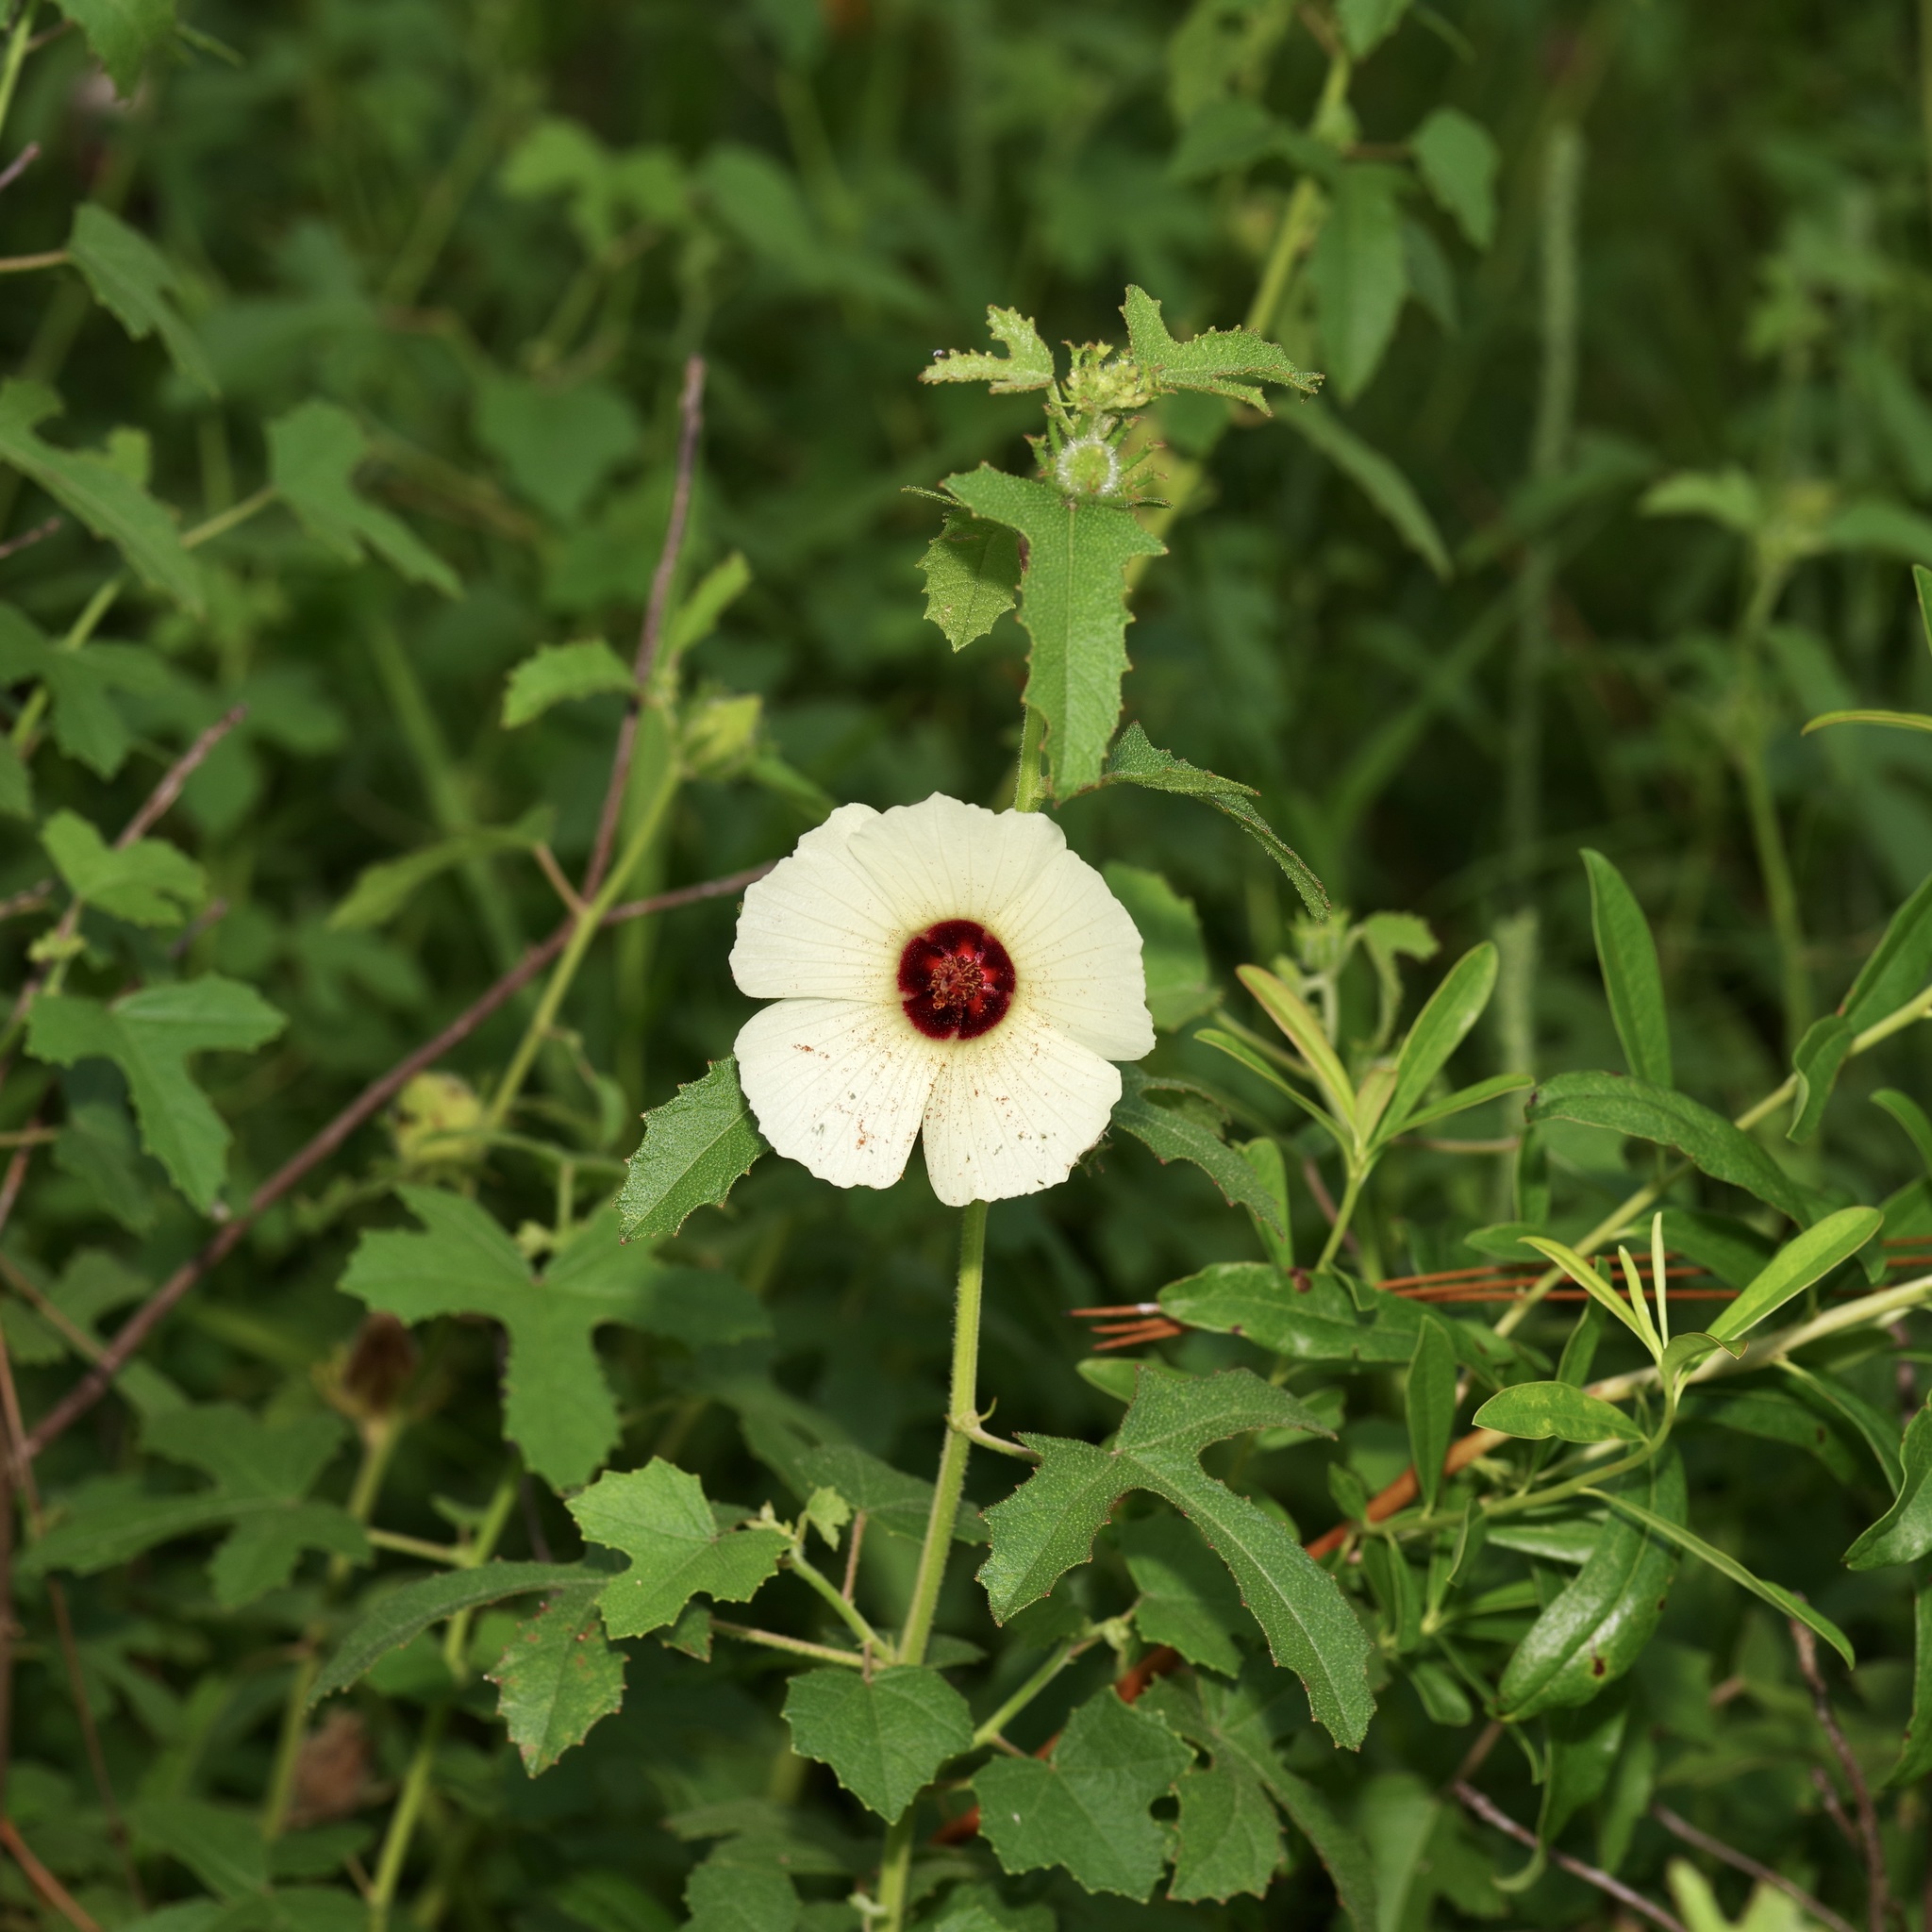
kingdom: Plantae
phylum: Tracheophyta
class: Magnoliopsida
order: Malvales
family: Malvaceae
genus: Hibiscus
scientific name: Hibiscus aculeatus
